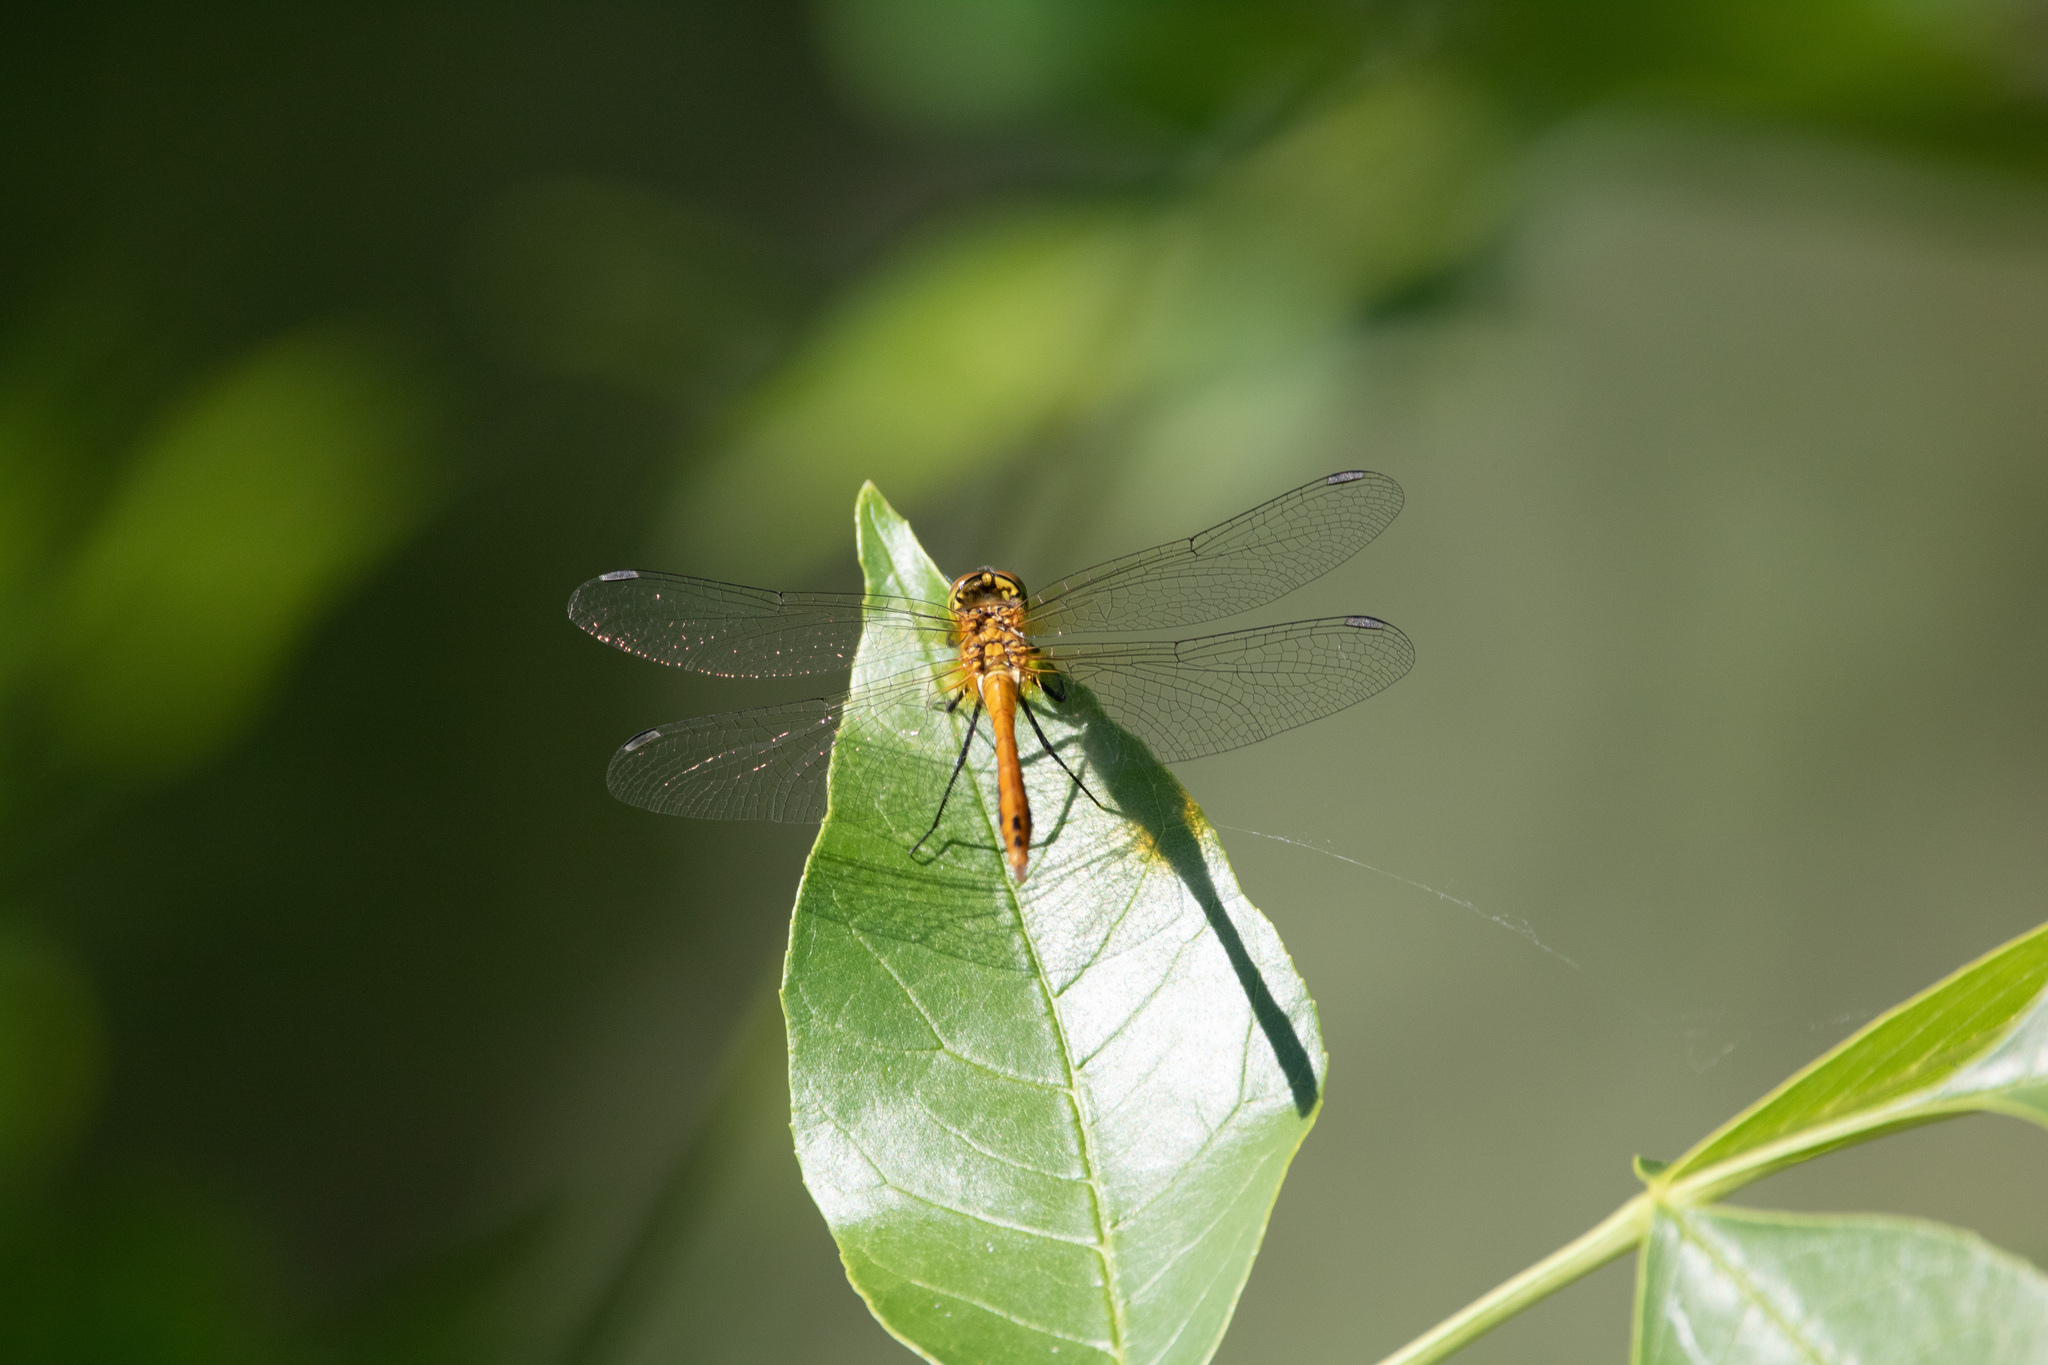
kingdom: Animalia
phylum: Arthropoda
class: Insecta
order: Odonata
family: Libellulidae
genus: Sympetrum
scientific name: Sympetrum sanguineum
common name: Ruddy darter
